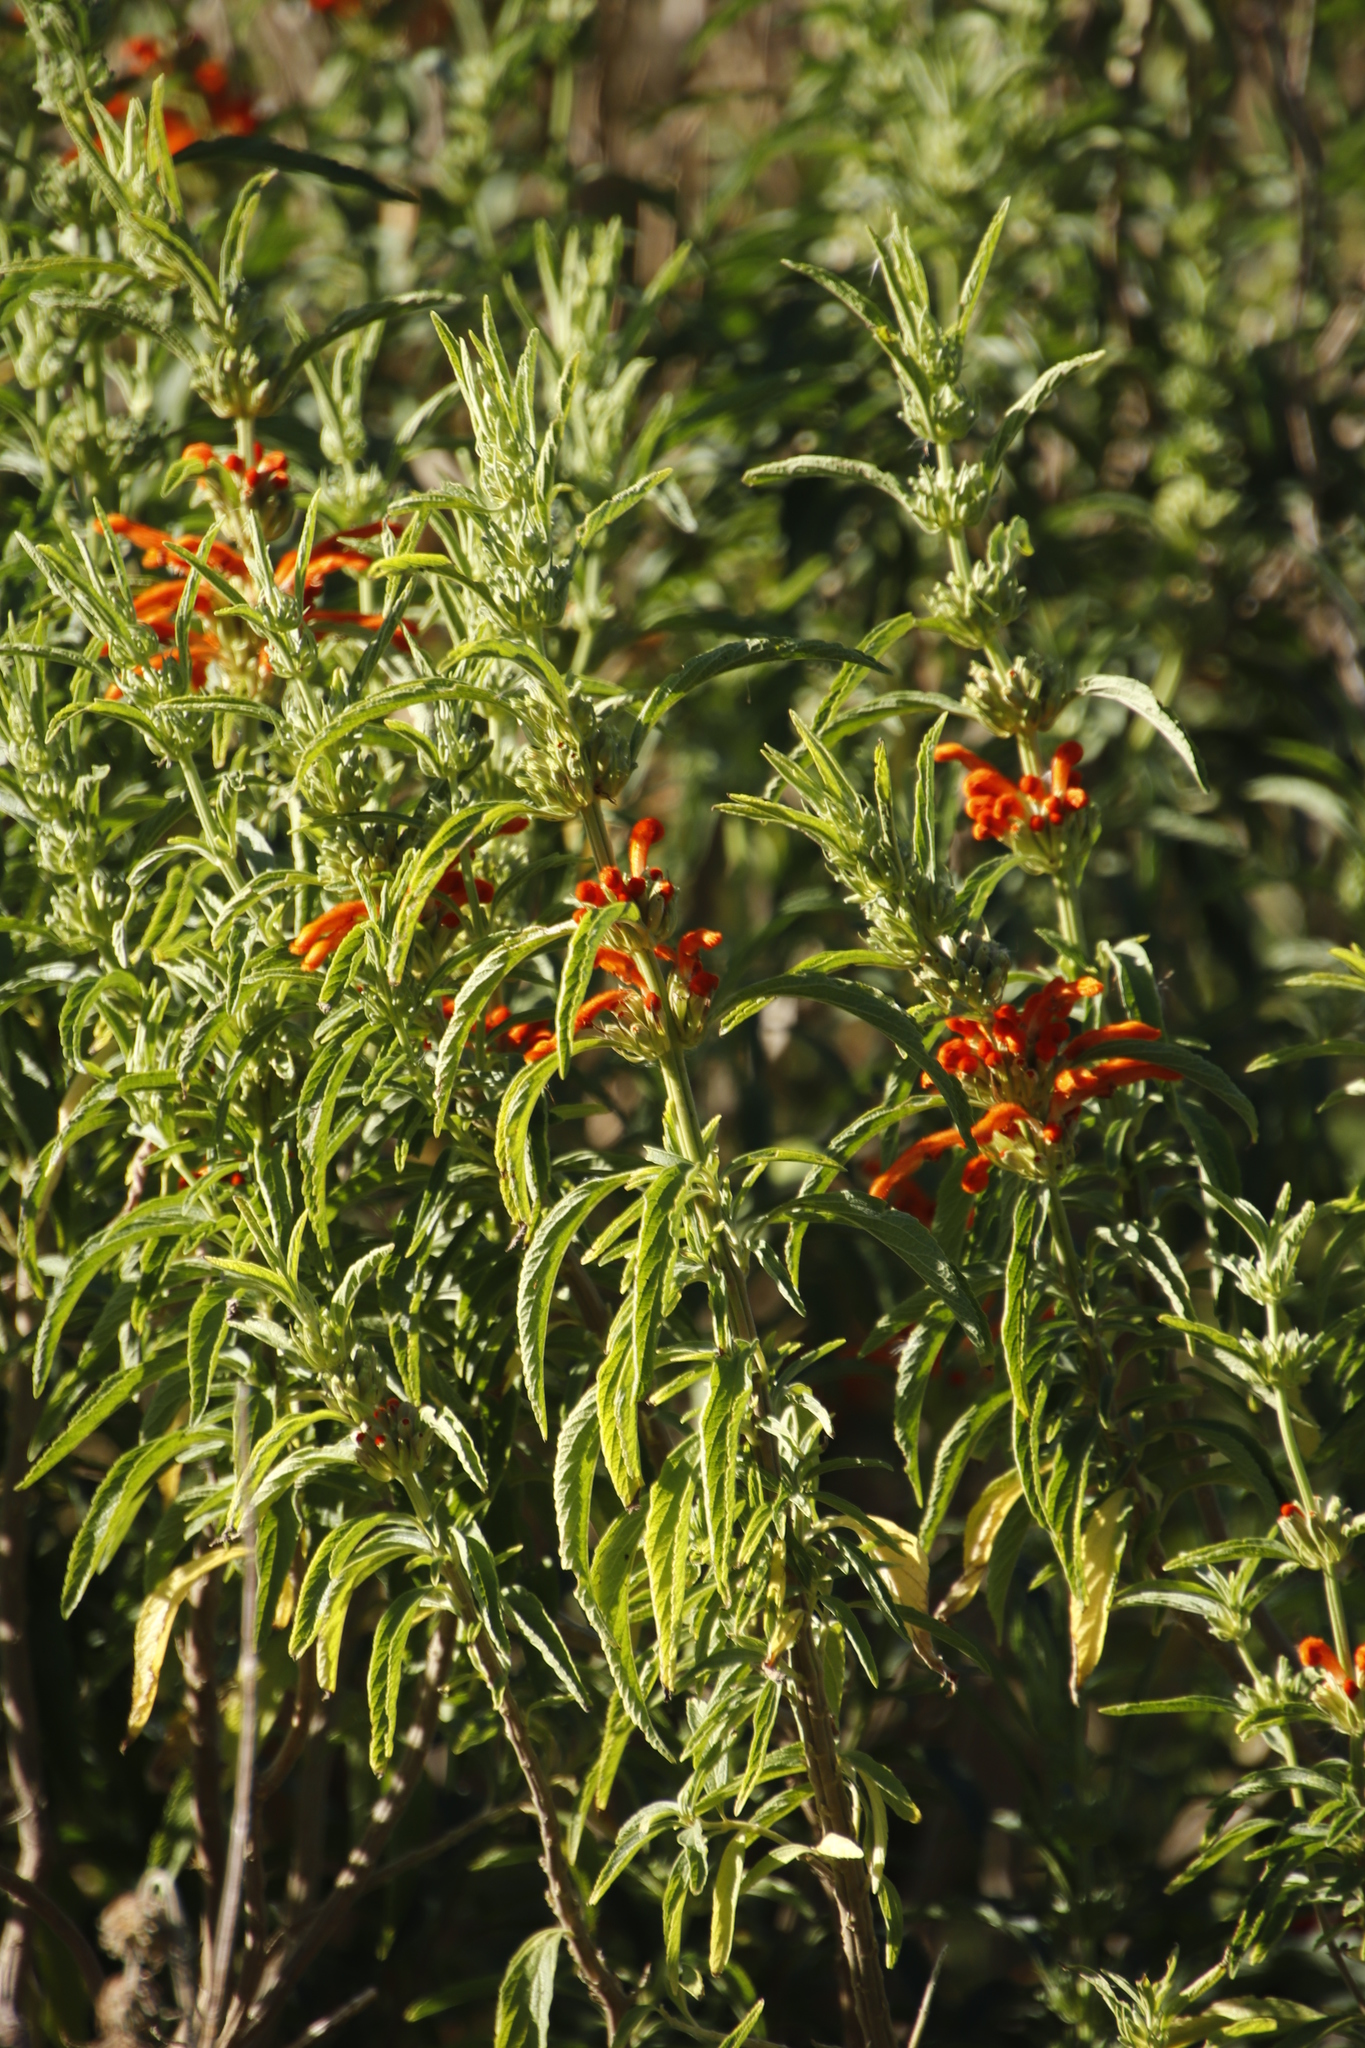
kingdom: Plantae
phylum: Tracheophyta
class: Magnoliopsida
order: Lamiales
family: Lamiaceae
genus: Leonotis
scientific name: Leonotis leonurus
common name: Lion's ear
